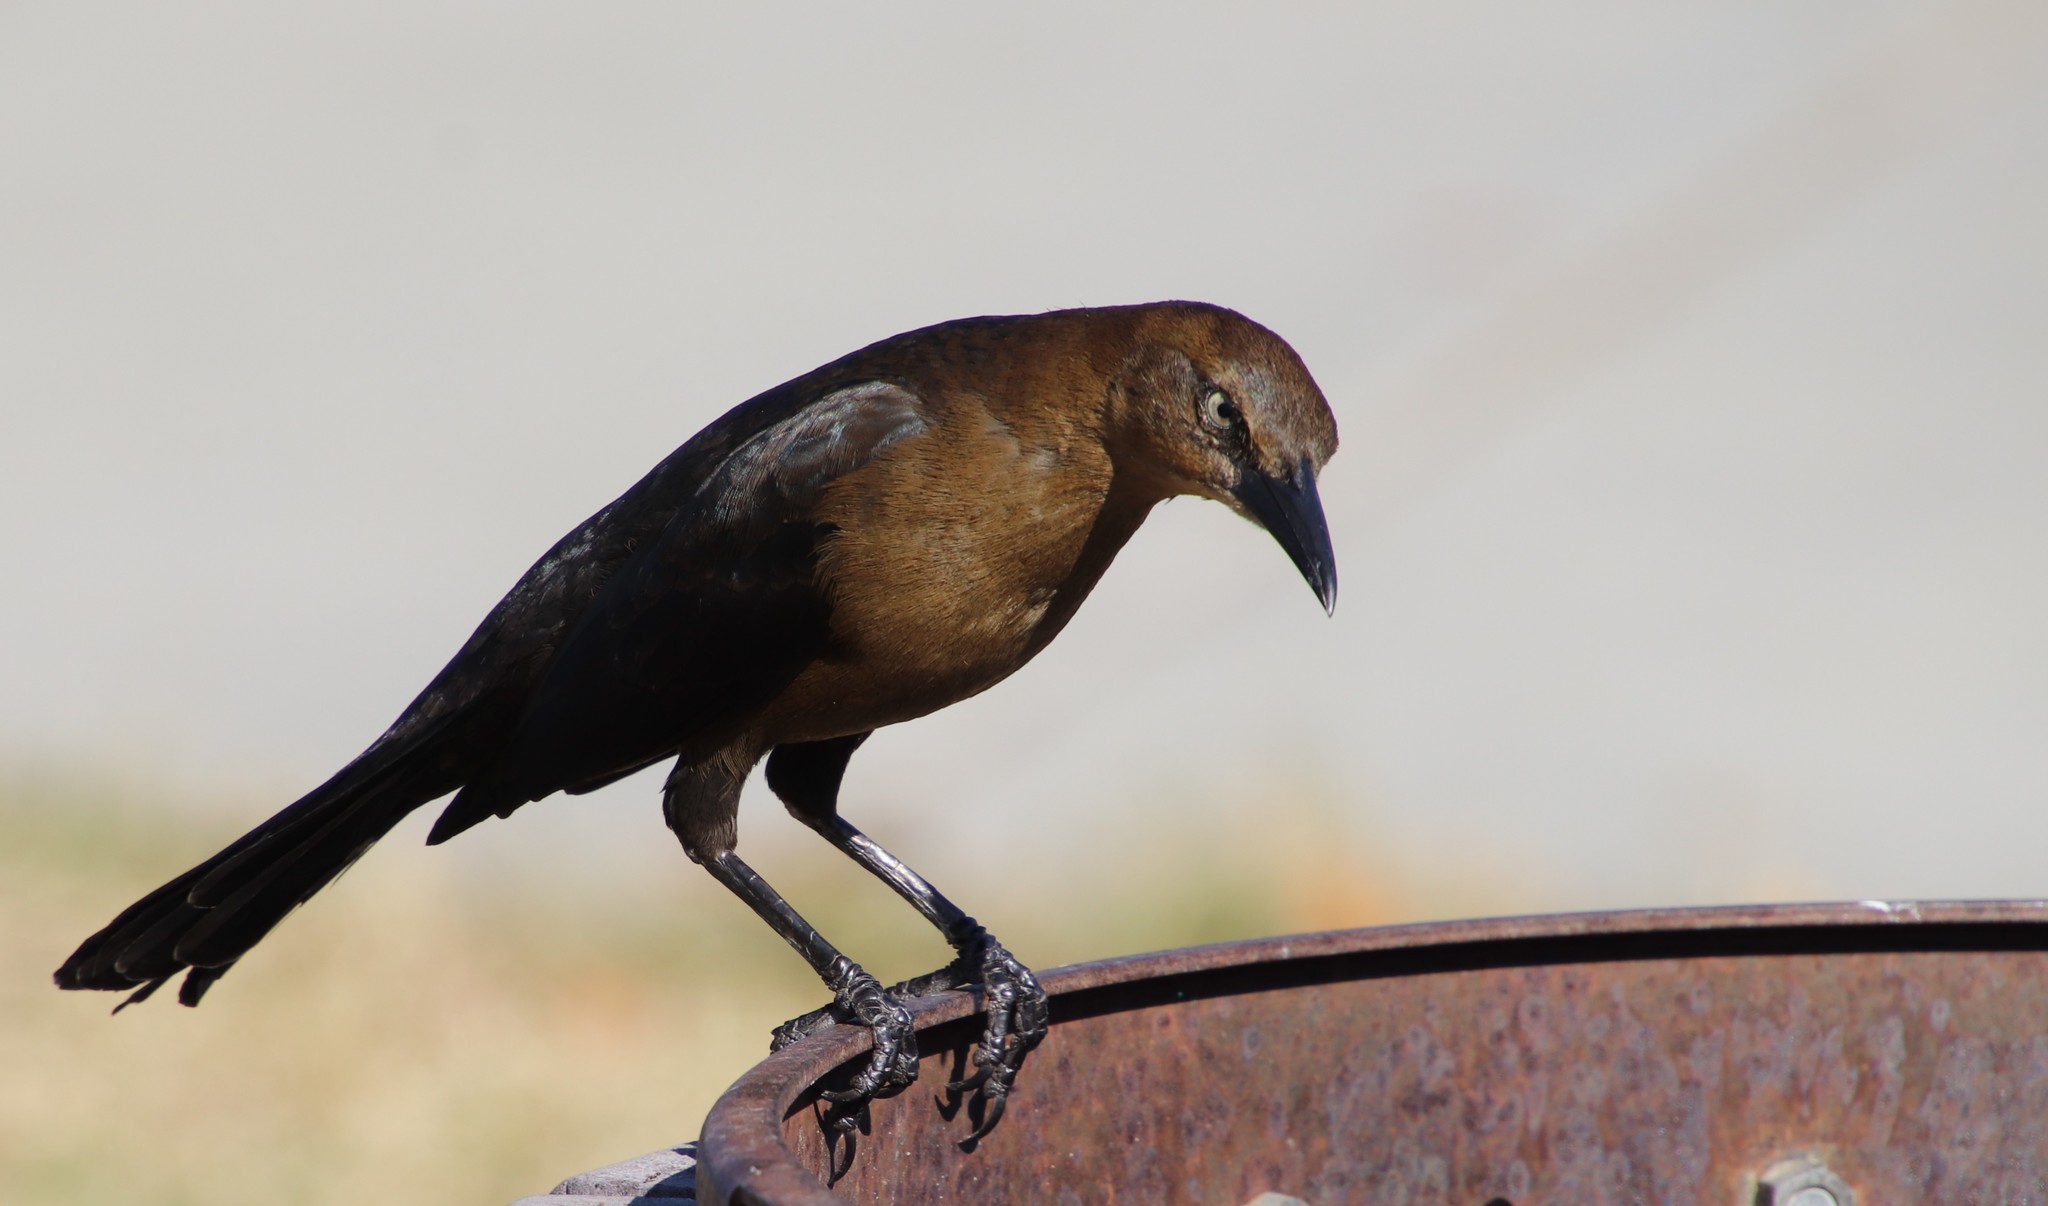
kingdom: Animalia
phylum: Chordata
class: Aves
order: Passeriformes
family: Icteridae
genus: Quiscalus
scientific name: Quiscalus mexicanus
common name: Great-tailed grackle
